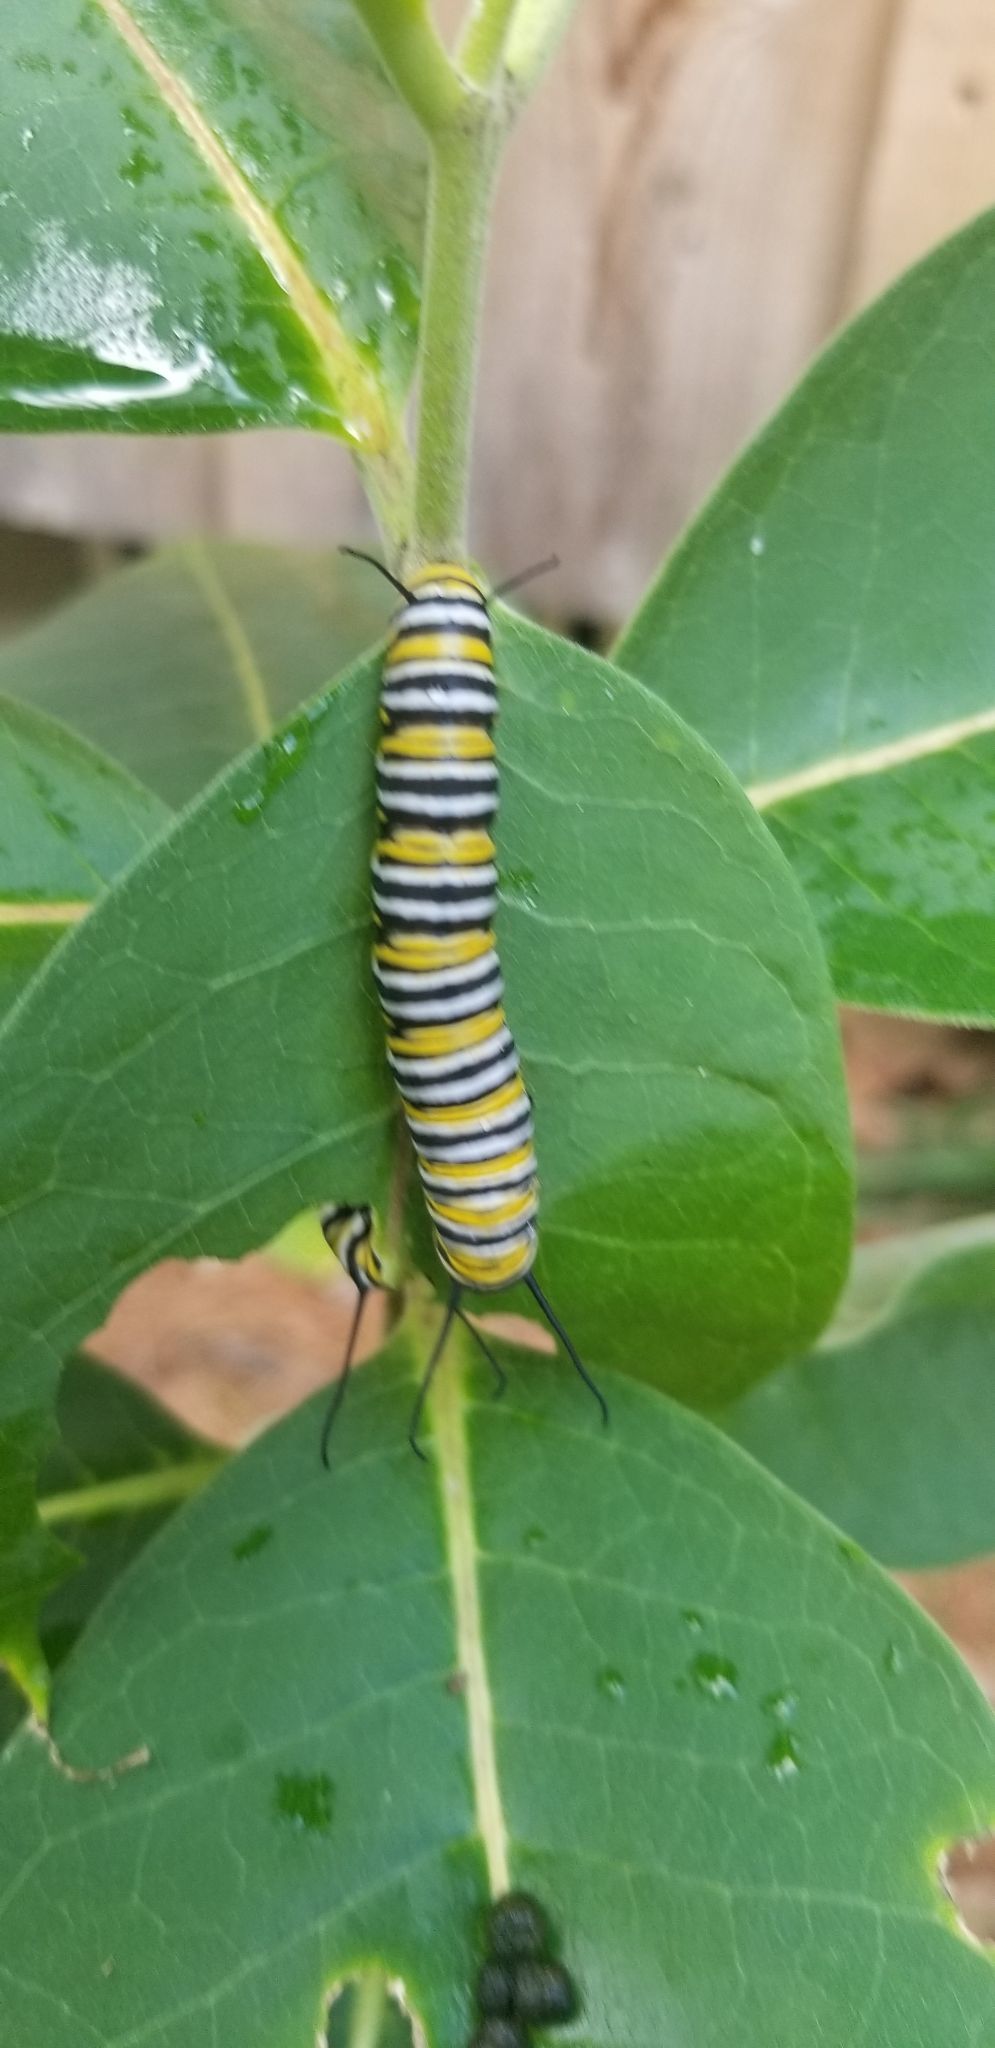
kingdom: Animalia
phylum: Arthropoda
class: Insecta
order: Lepidoptera
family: Nymphalidae
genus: Danaus
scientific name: Danaus plexippus
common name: Monarch
